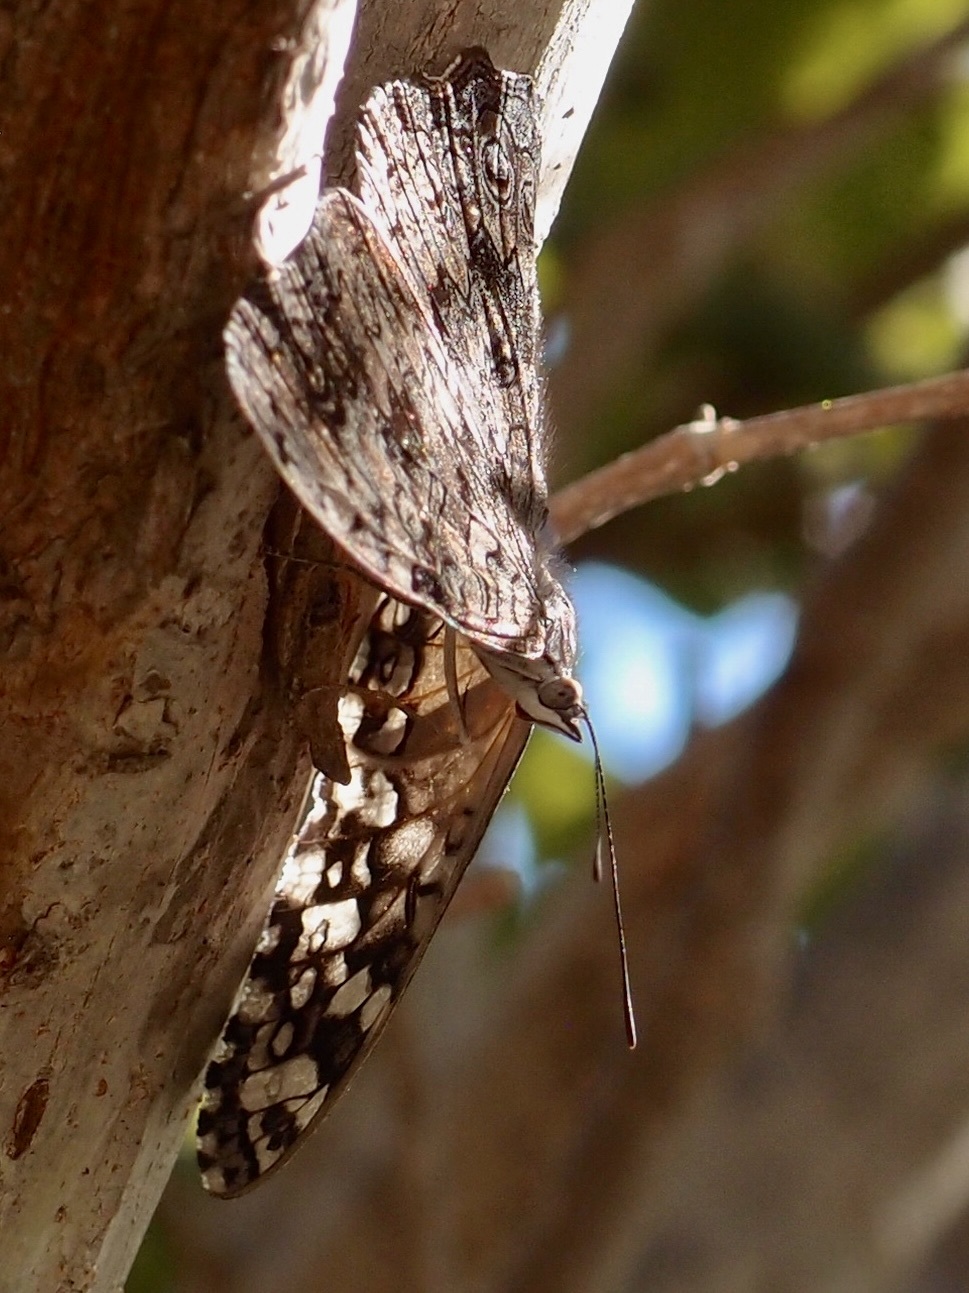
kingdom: Animalia
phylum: Arthropoda
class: Insecta
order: Lepidoptera
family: Nymphalidae
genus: Hamadryas
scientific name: Hamadryas februa
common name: Gray cracker
